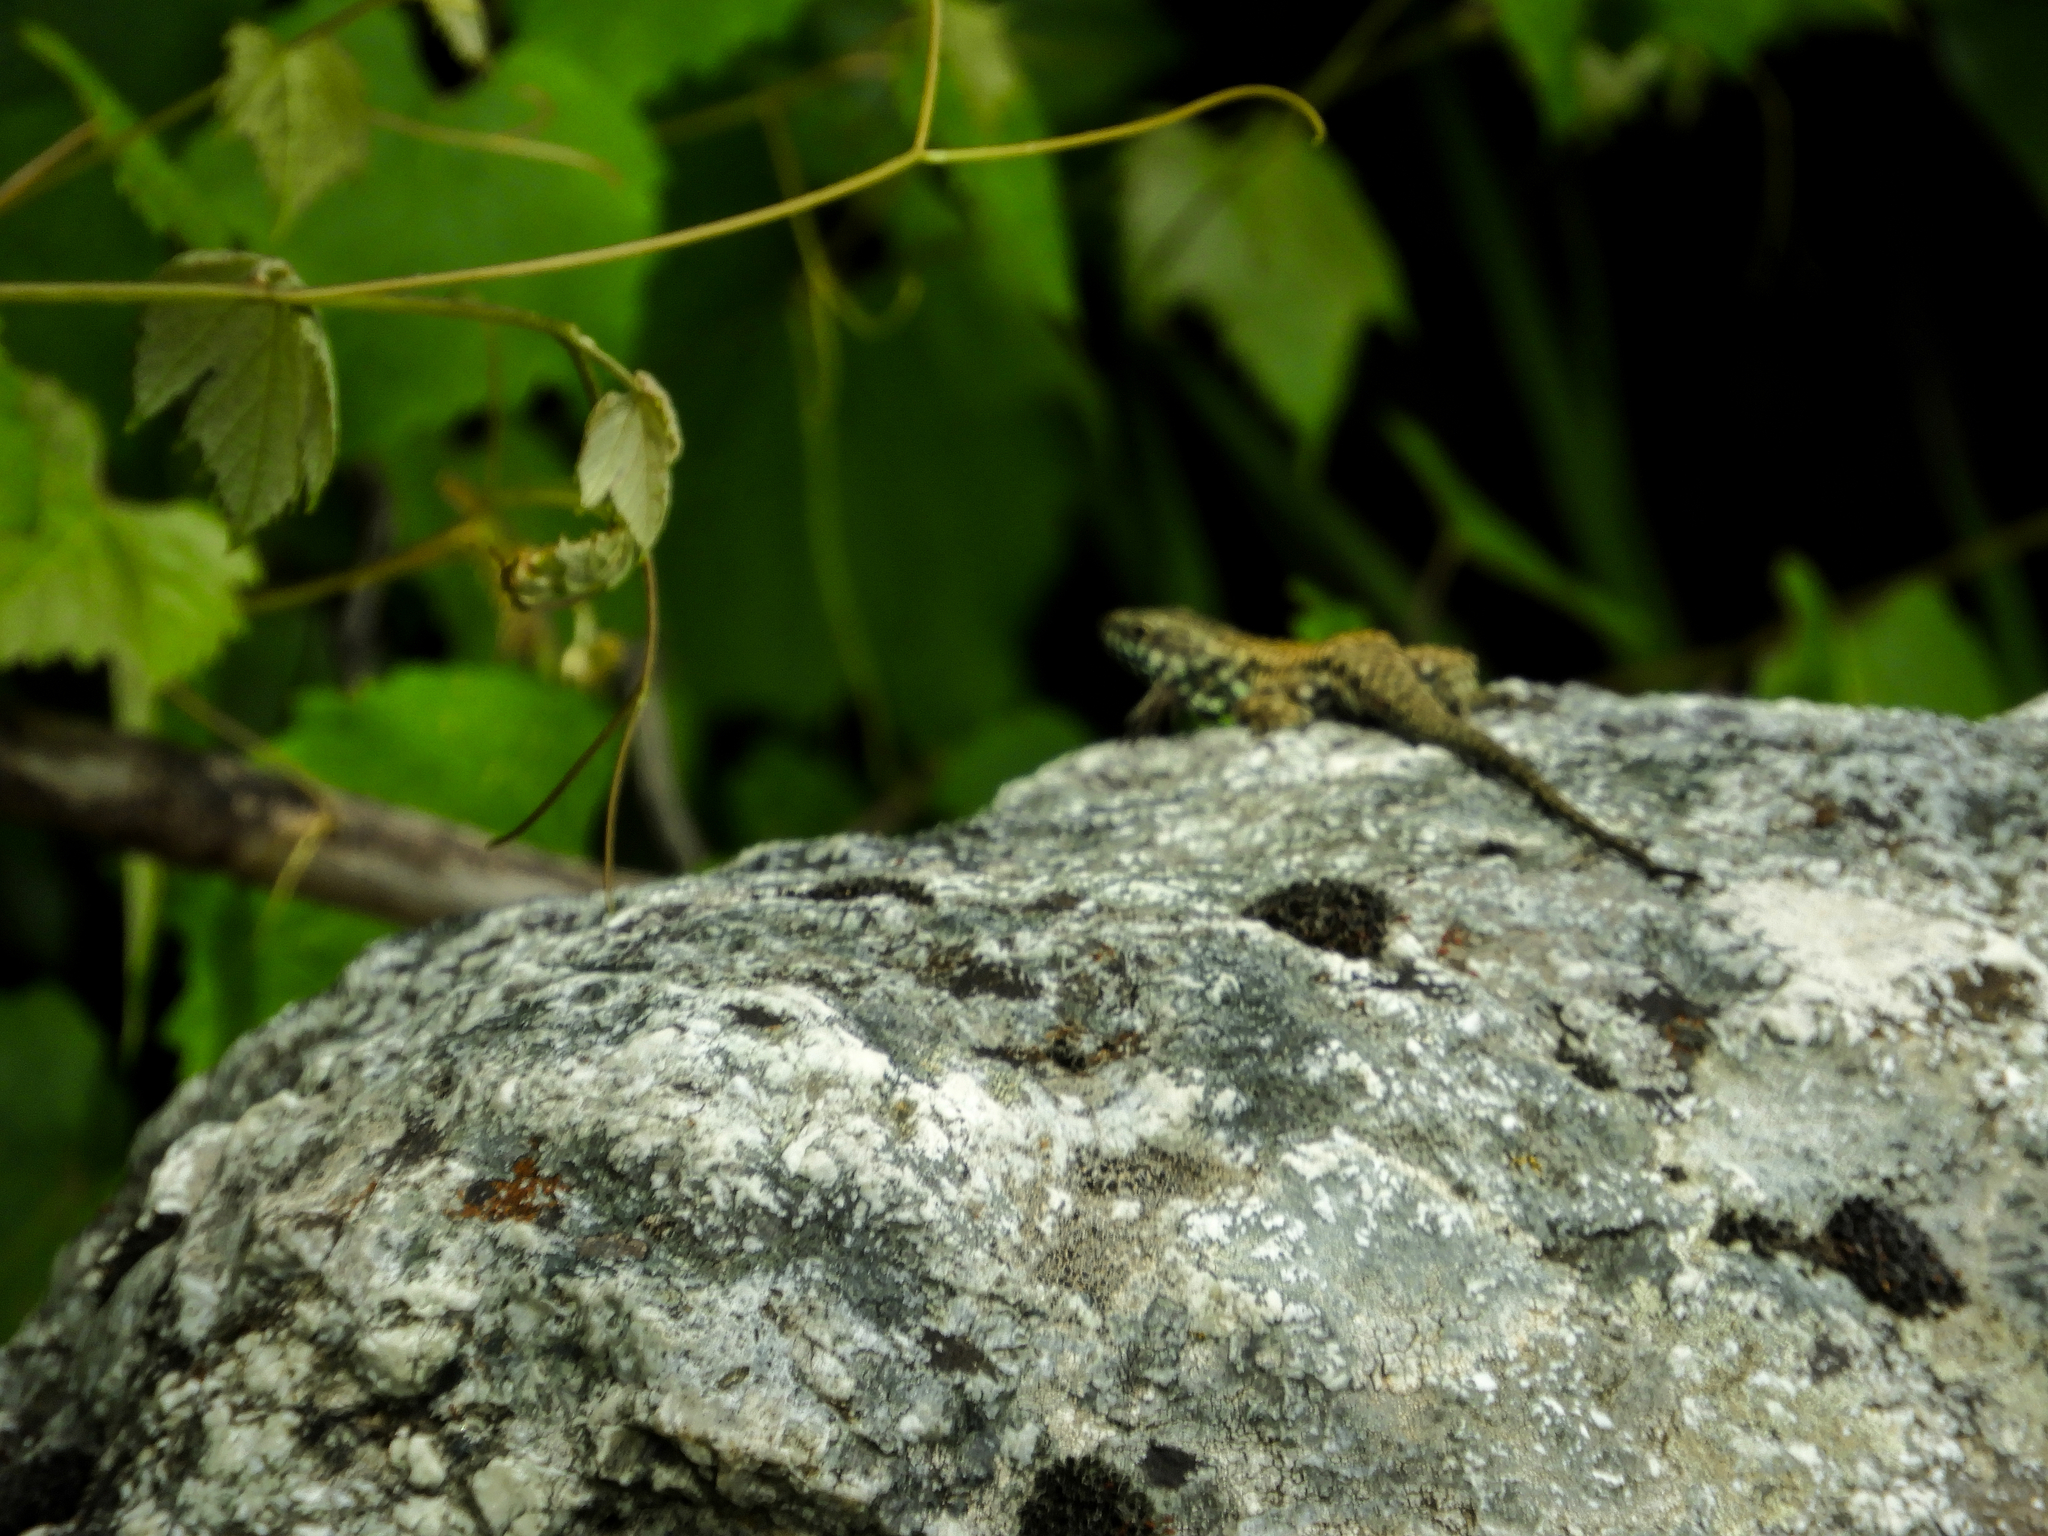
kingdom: Animalia
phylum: Chordata
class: Squamata
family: Lacertidae
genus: Podarcis
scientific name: Podarcis muralis
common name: Common wall lizard
